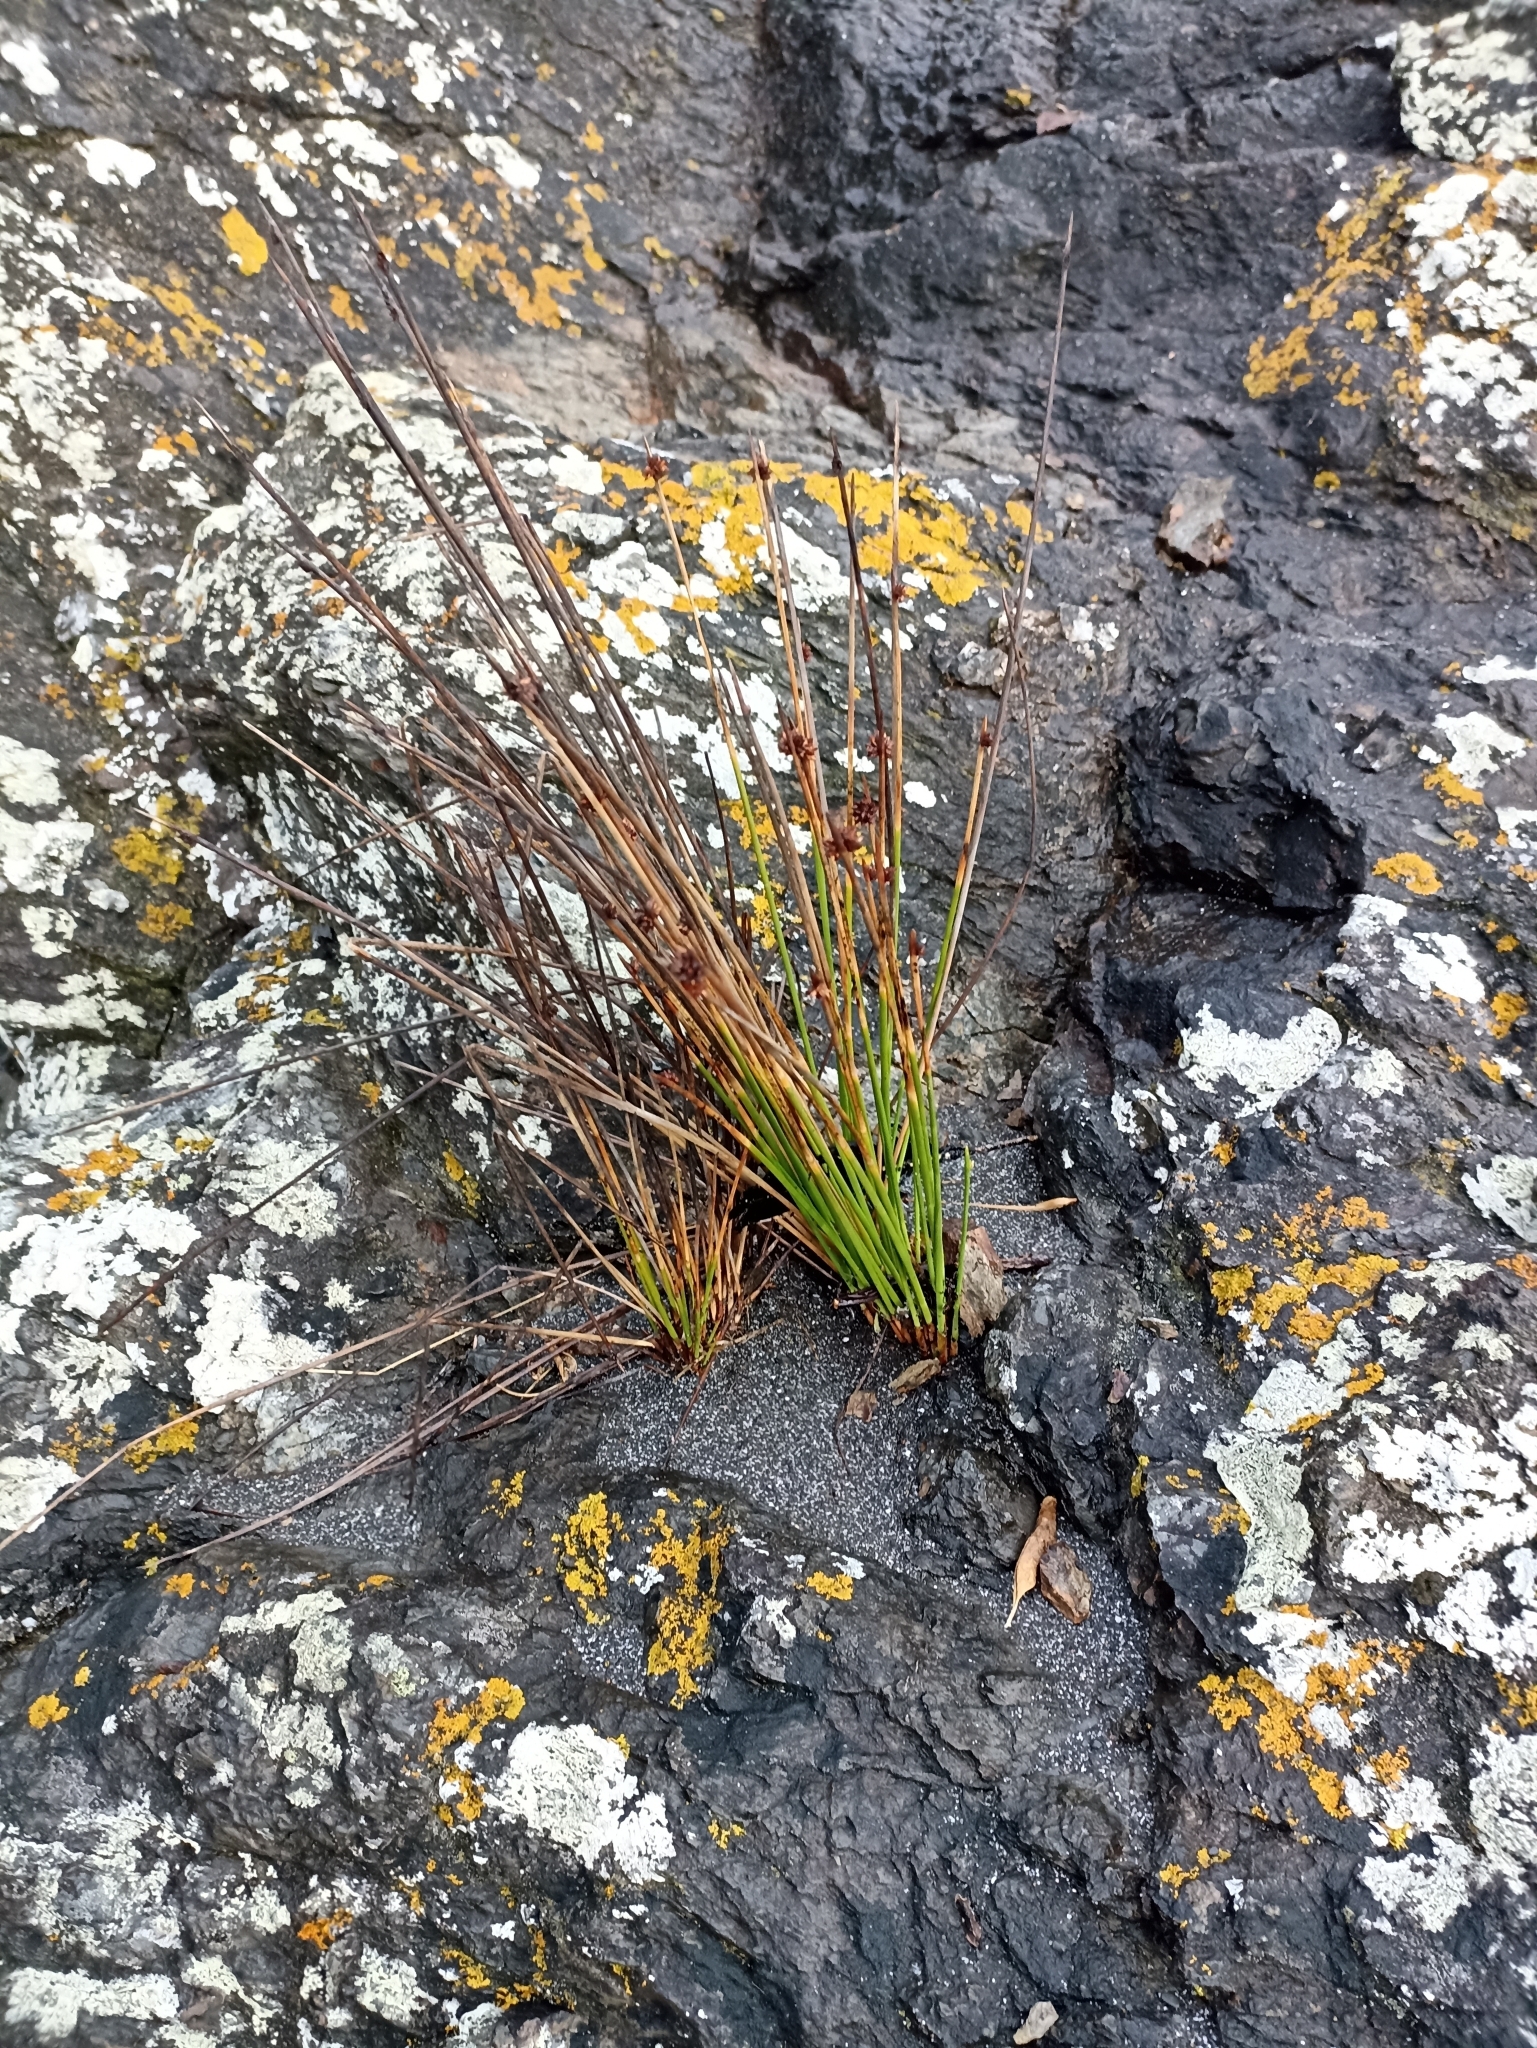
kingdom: Plantae
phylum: Tracheophyta
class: Liliopsida
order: Poales
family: Cyperaceae
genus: Ficinia
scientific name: Ficinia nodosa
